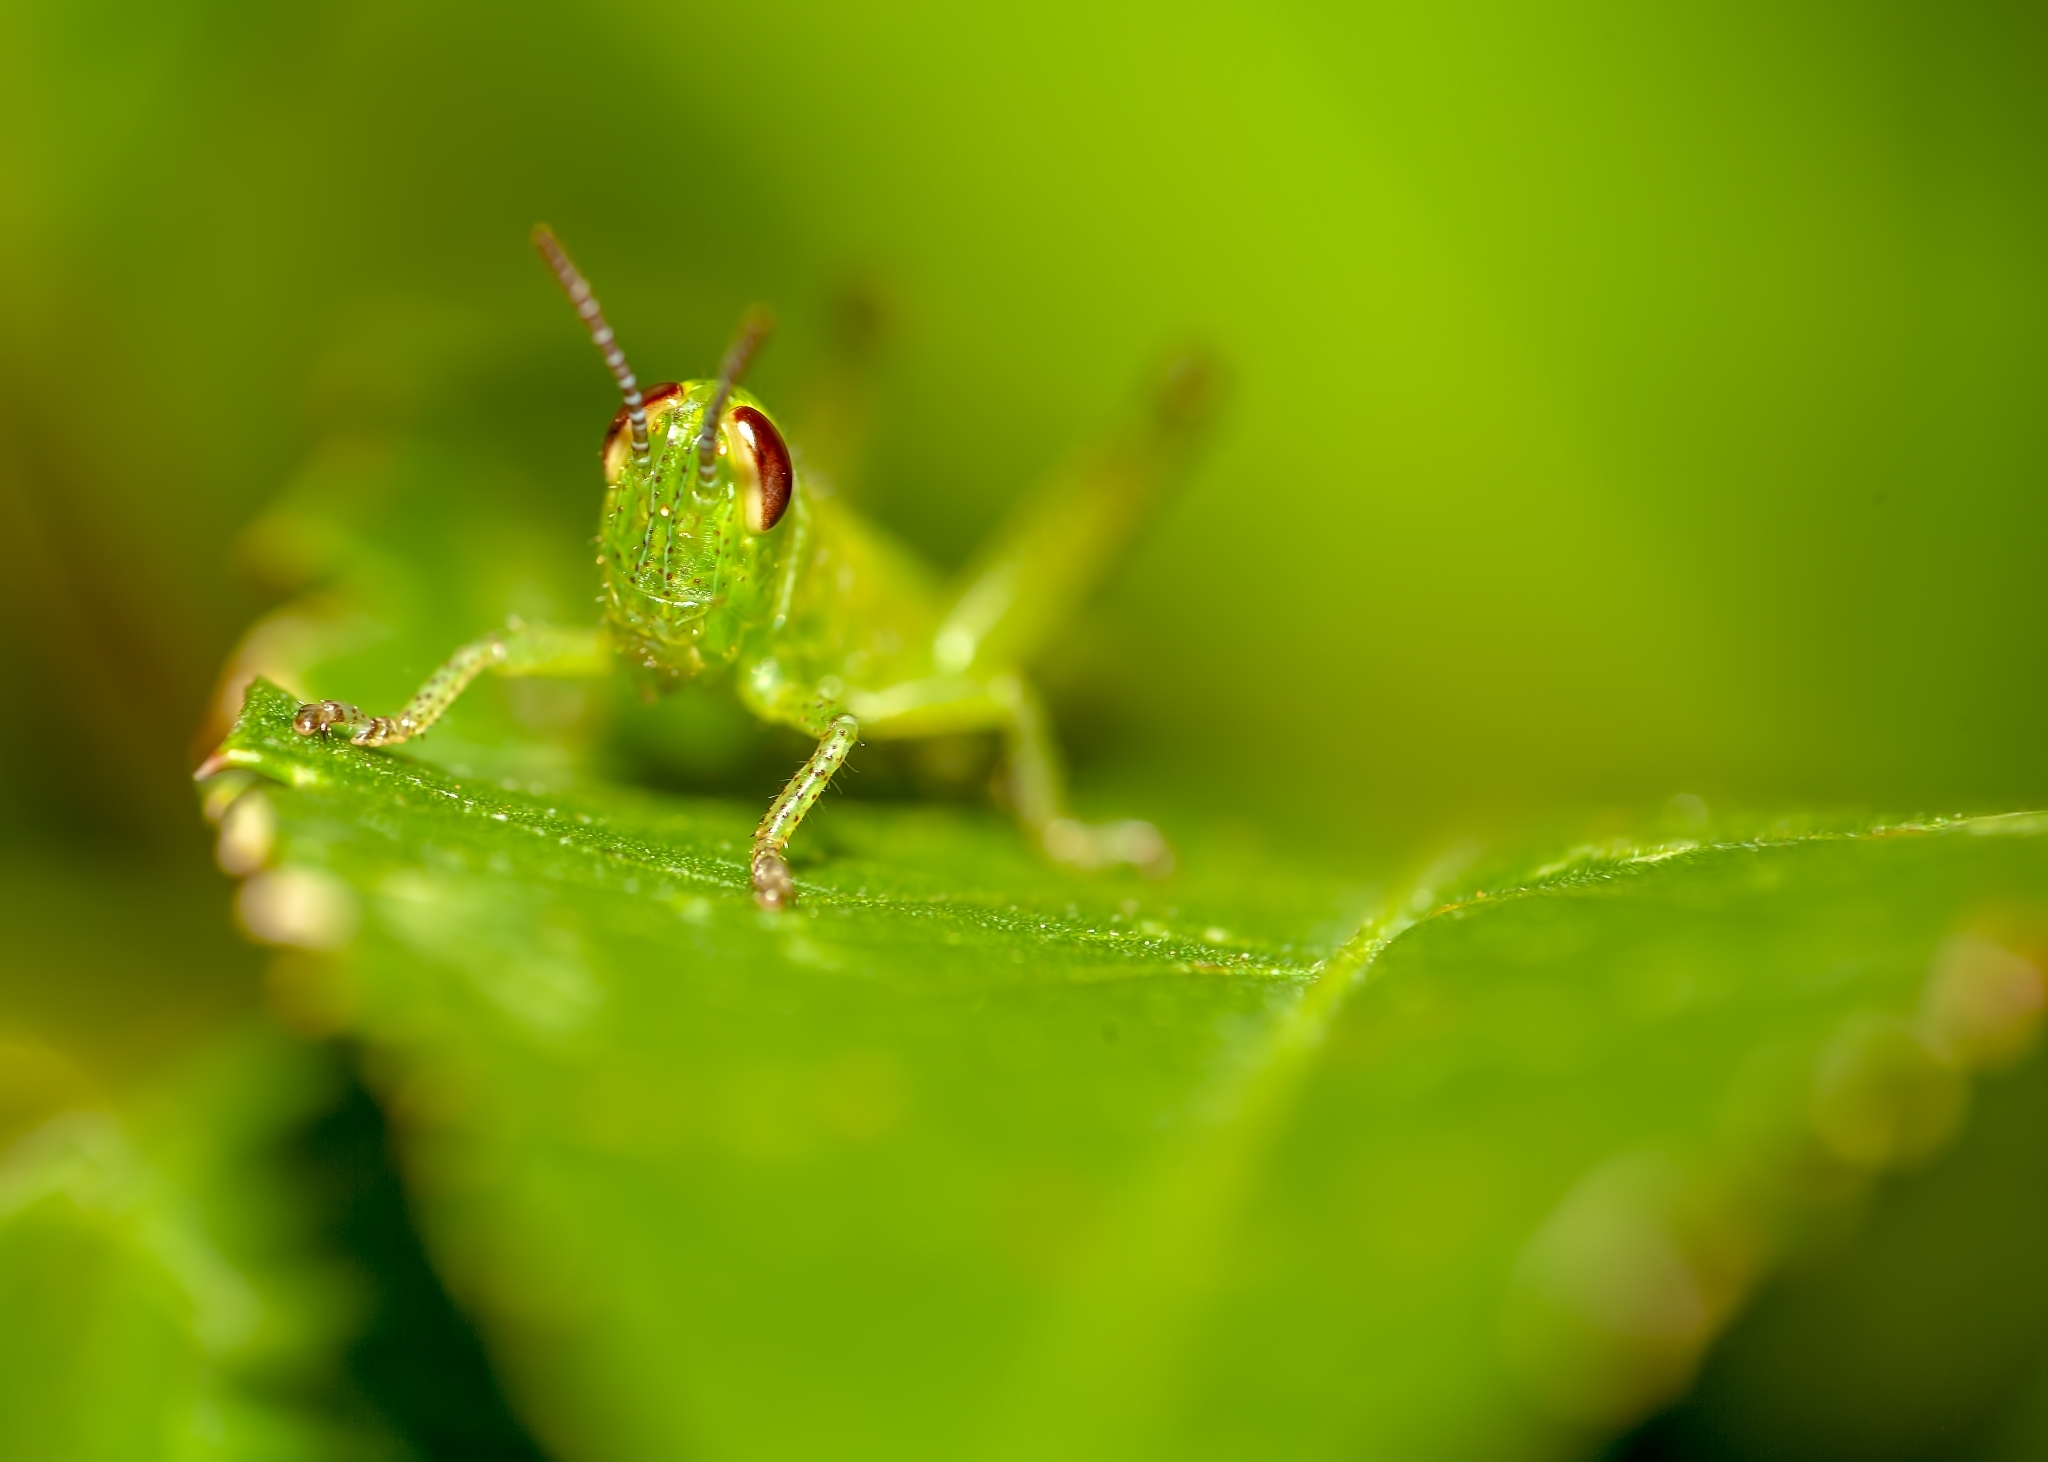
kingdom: Animalia
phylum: Arthropoda
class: Insecta
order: Orthoptera
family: Acrididae
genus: Schistocerca
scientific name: Schistocerca americana
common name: American bird locust
